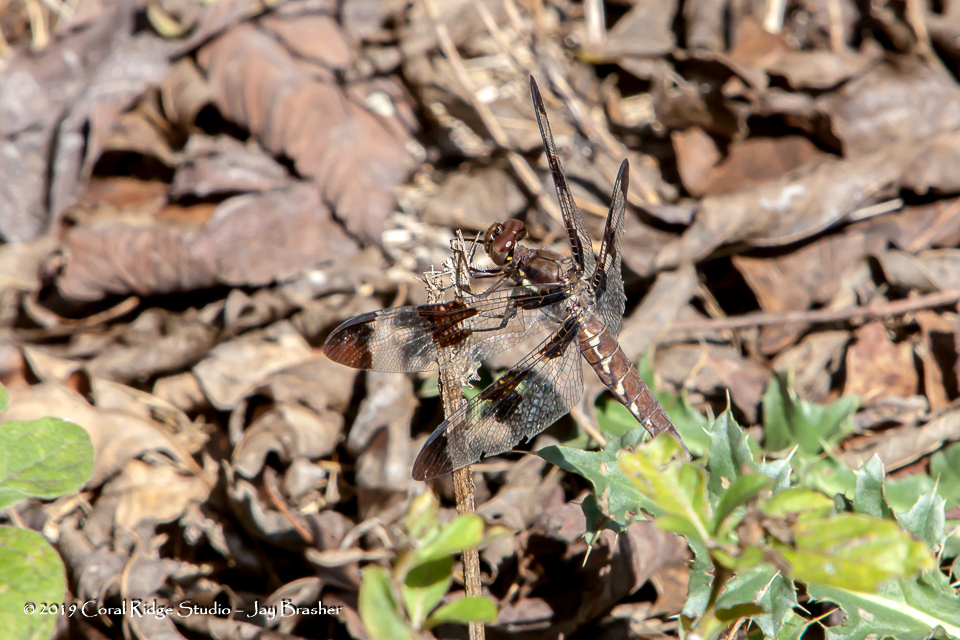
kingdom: Animalia
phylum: Arthropoda
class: Insecta
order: Odonata
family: Libellulidae
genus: Plathemis
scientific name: Plathemis lydia
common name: Common whitetail
